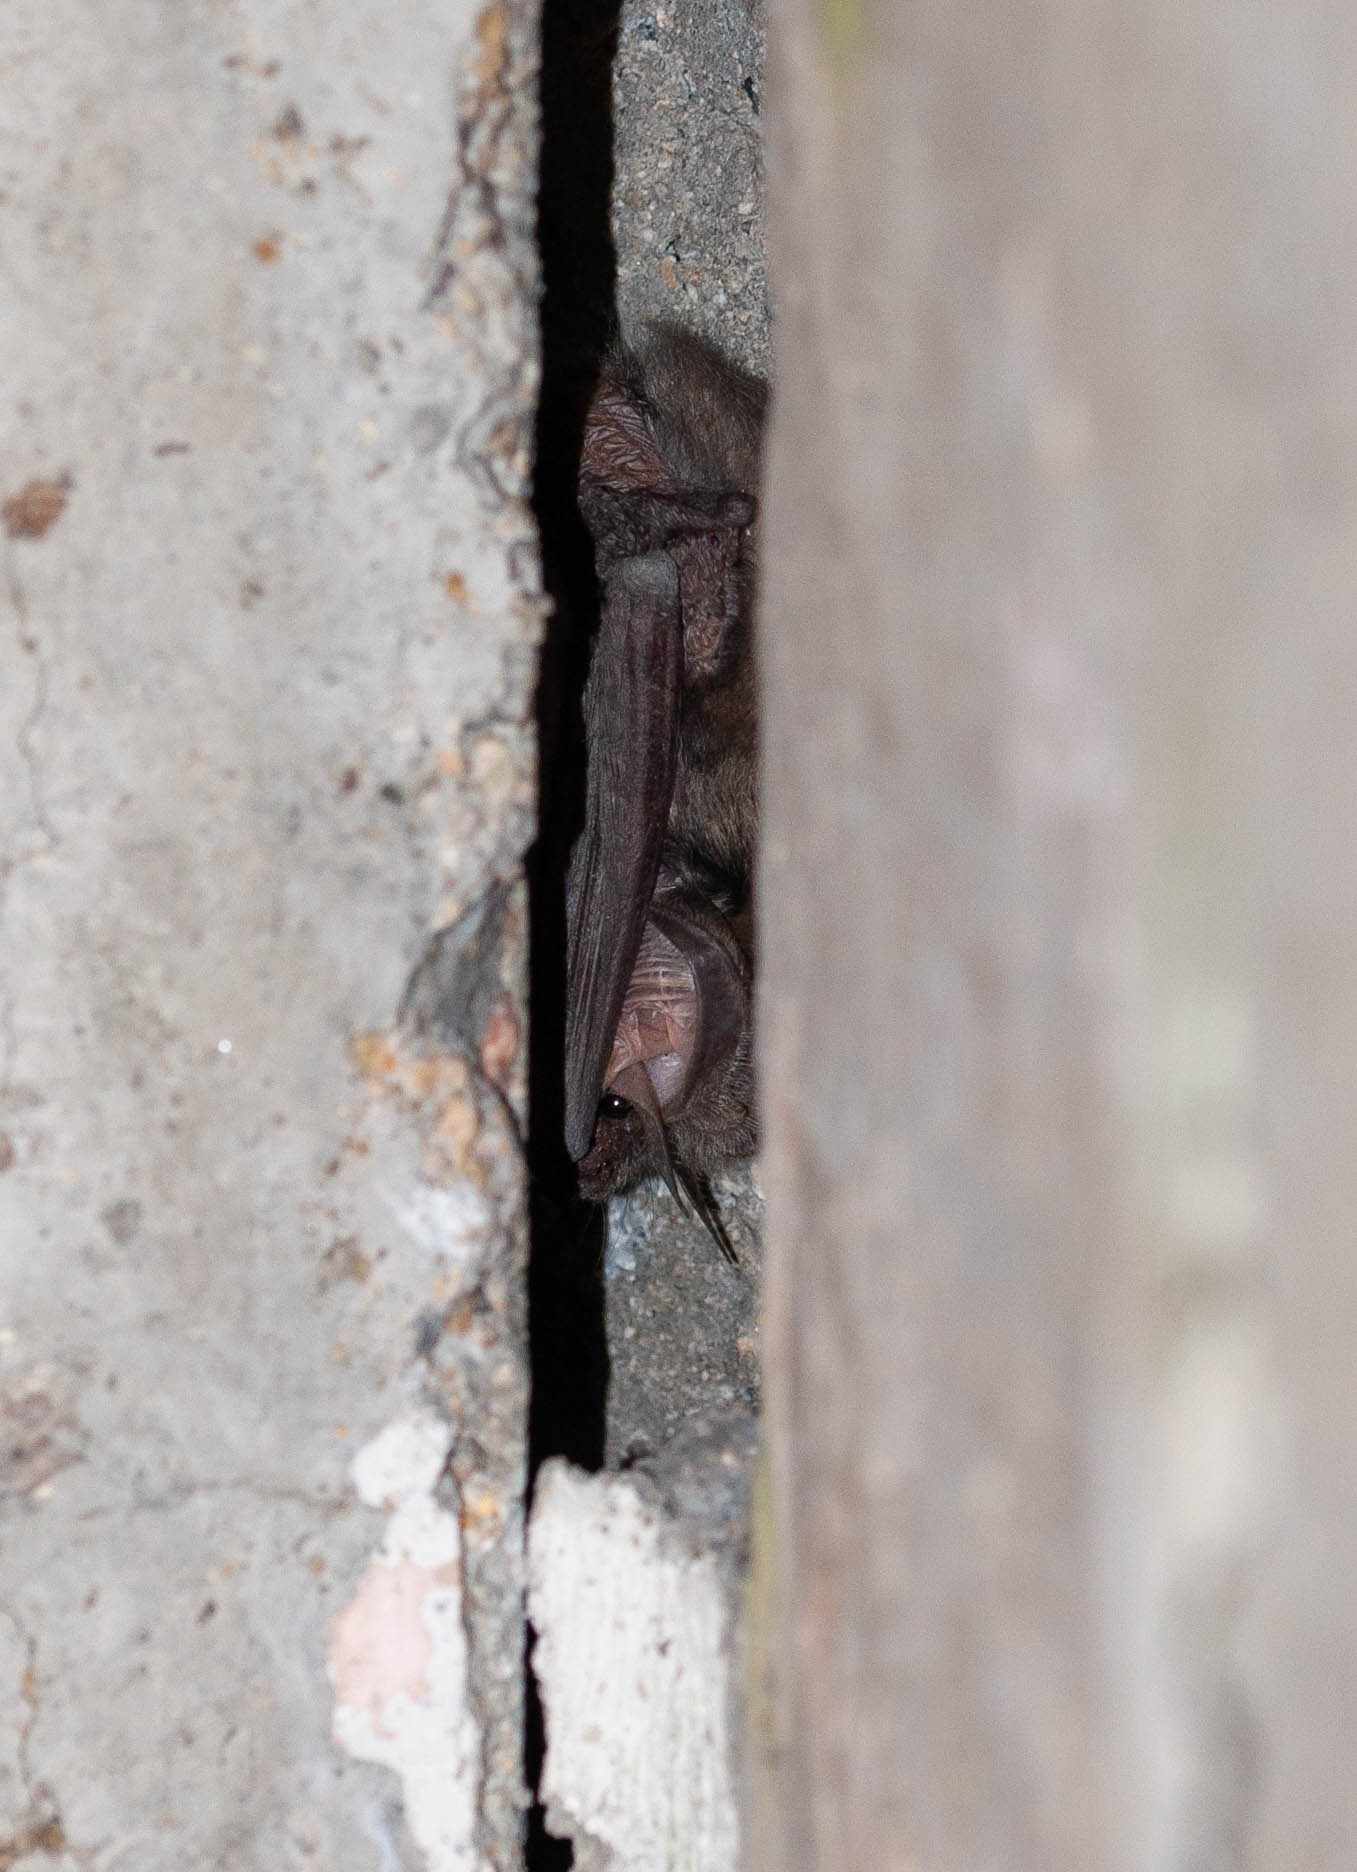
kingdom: Animalia
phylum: Chordata
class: Mammalia
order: Chiroptera
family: Vespertilionidae
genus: Plecotus
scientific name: Plecotus austriacus
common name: Grey long-eared bat
